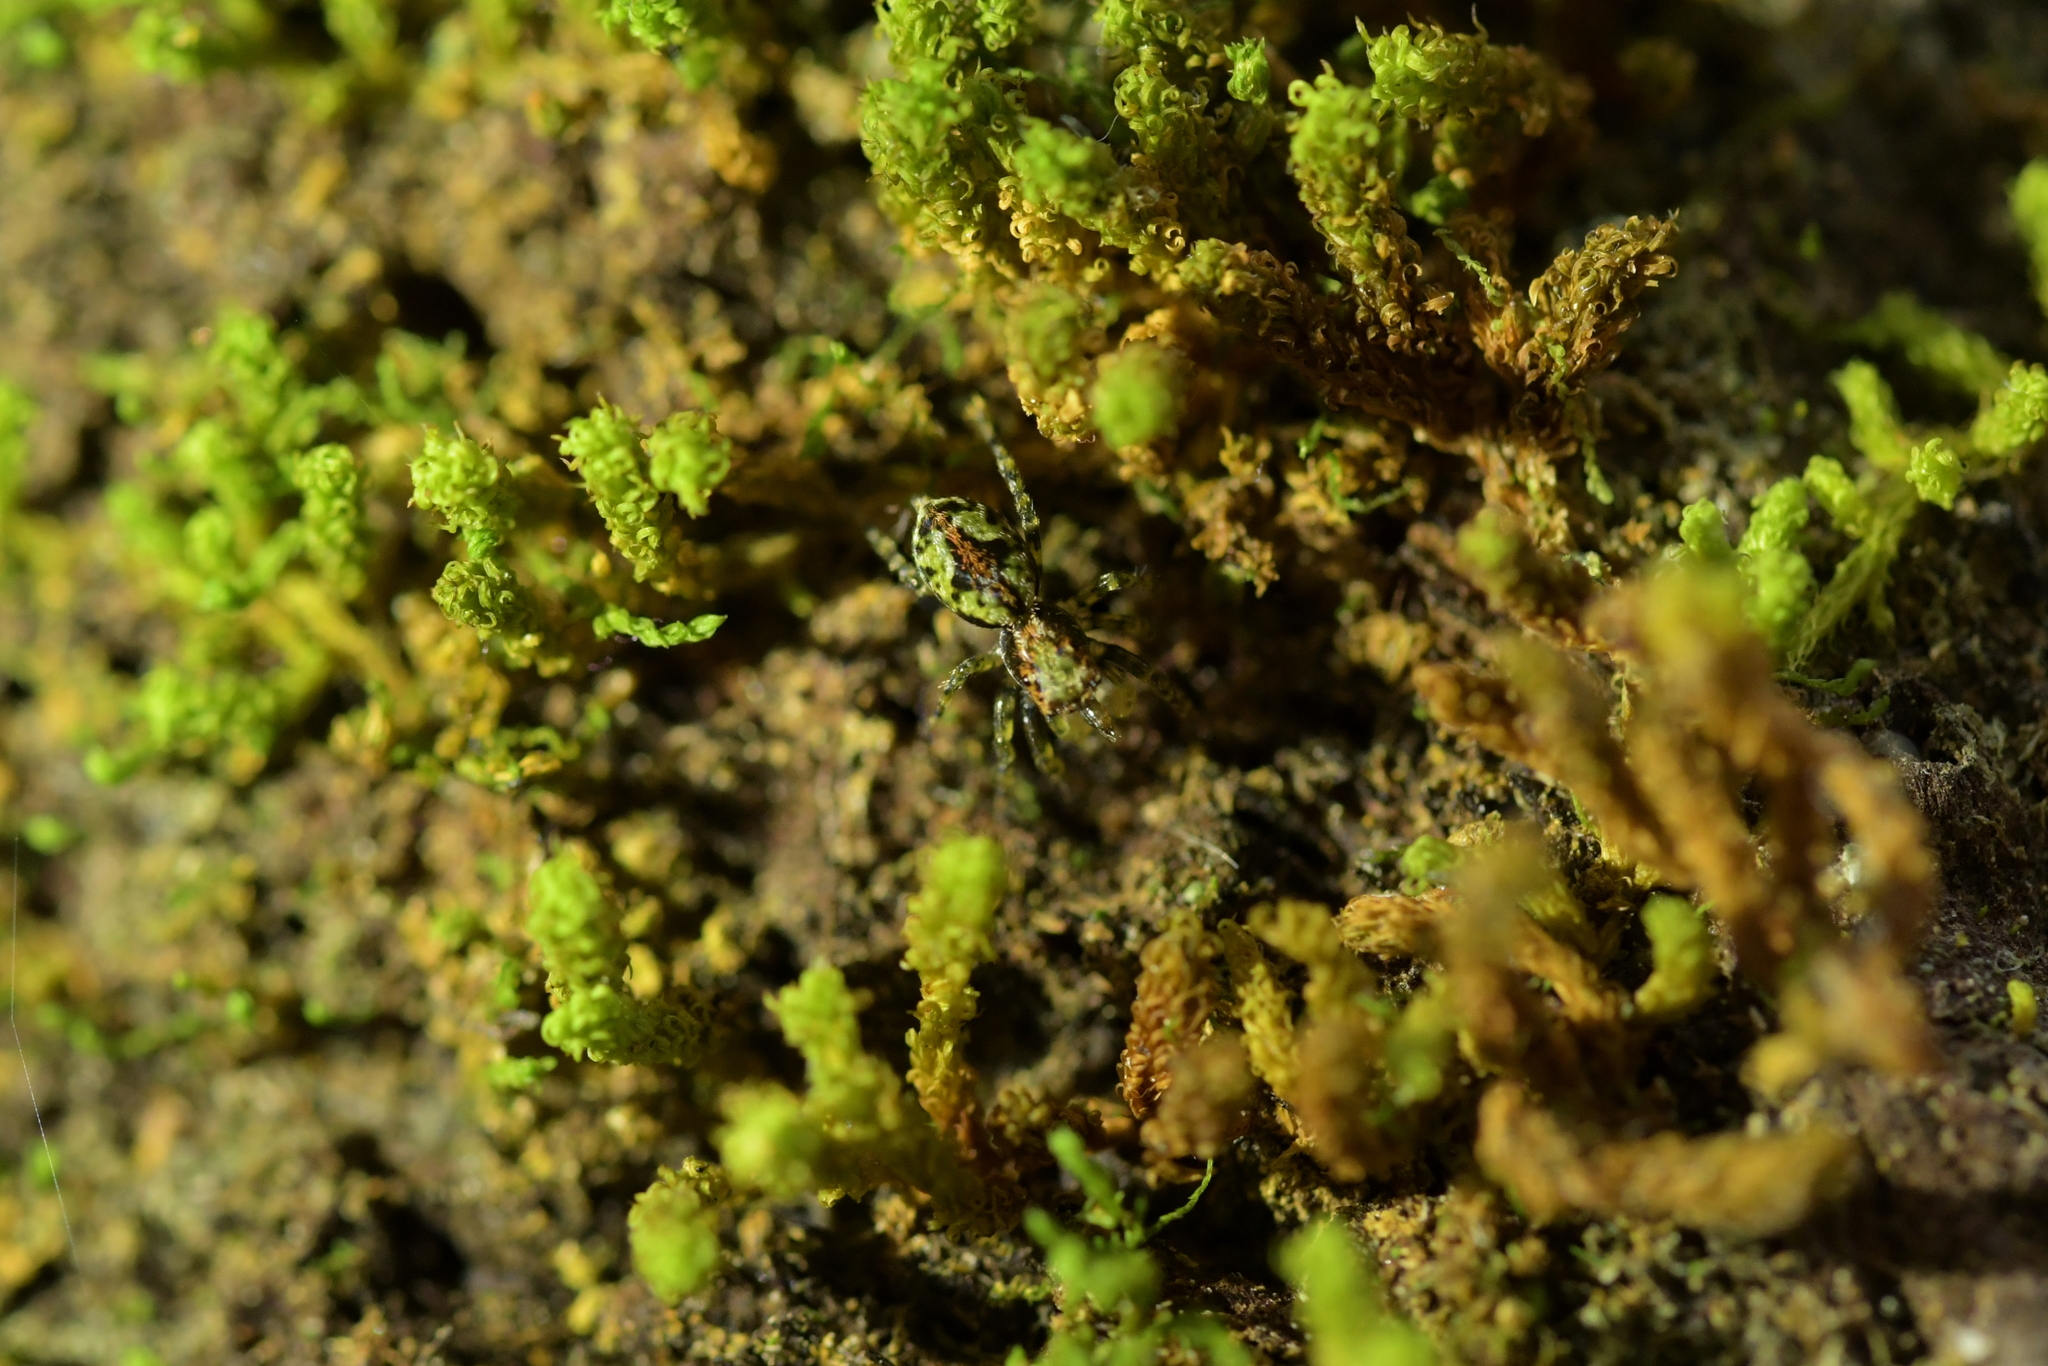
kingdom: Animalia
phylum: Arthropoda
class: Arachnida
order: Araneae
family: Salticidae
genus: Hinewaia
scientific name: Hinewaia embolica
